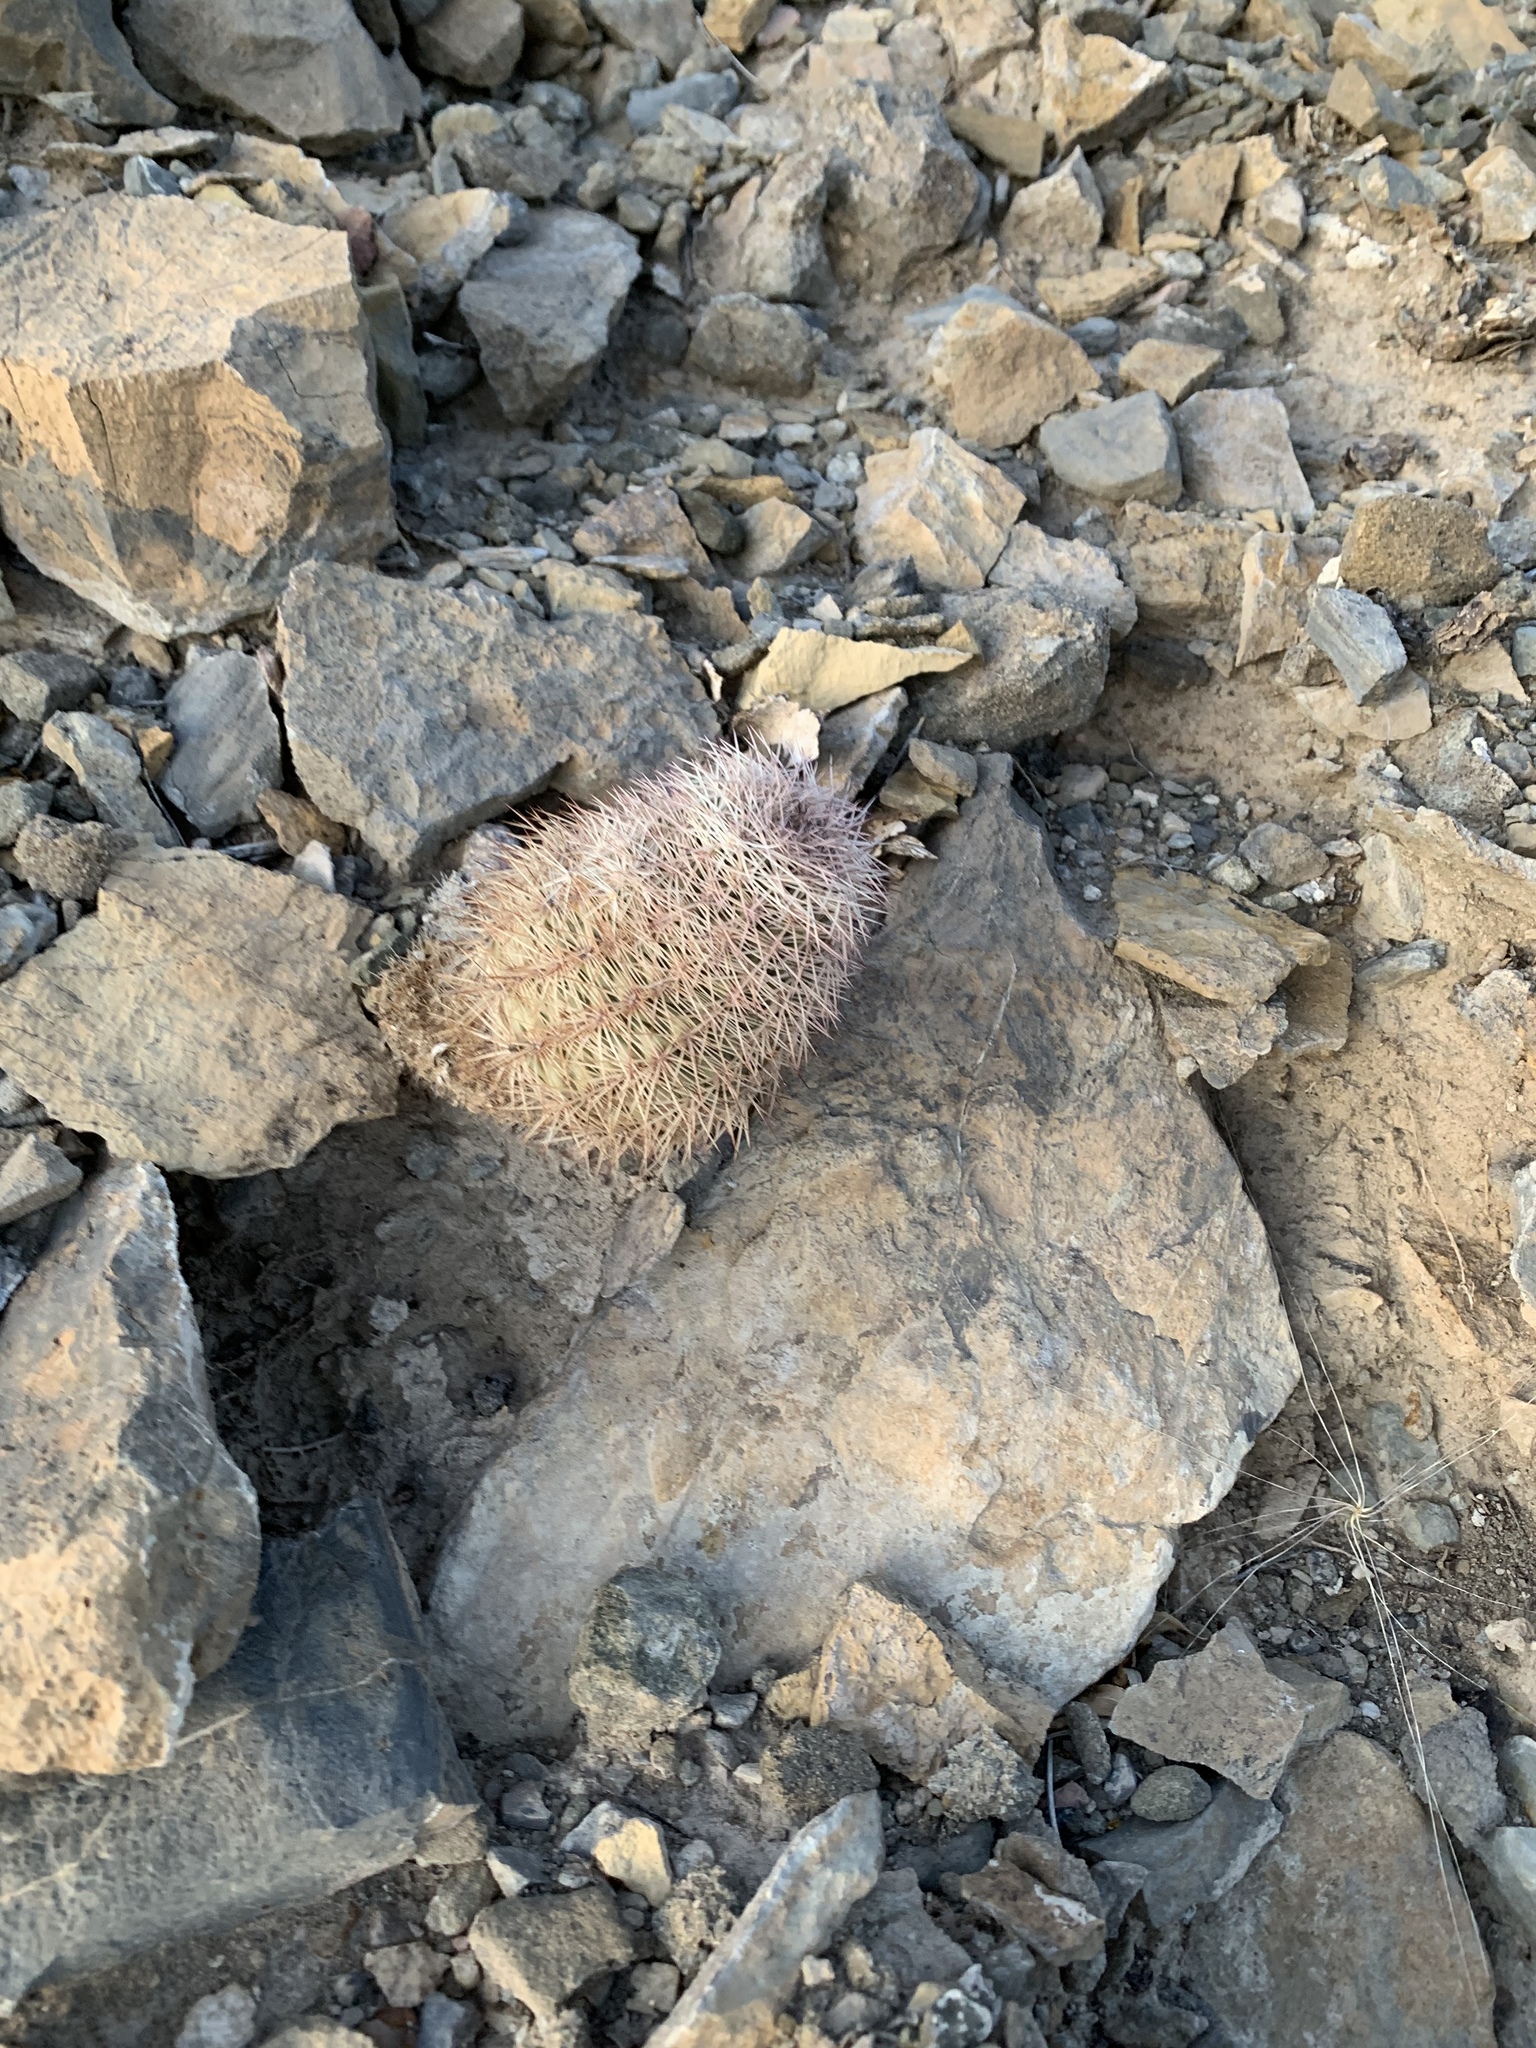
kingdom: Plantae
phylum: Tracheophyta
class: Magnoliopsida
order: Caryophyllales
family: Cactaceae
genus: Echinocereus
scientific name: Echinocereus dasyacanthus
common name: Spiny hedgehog cactus
